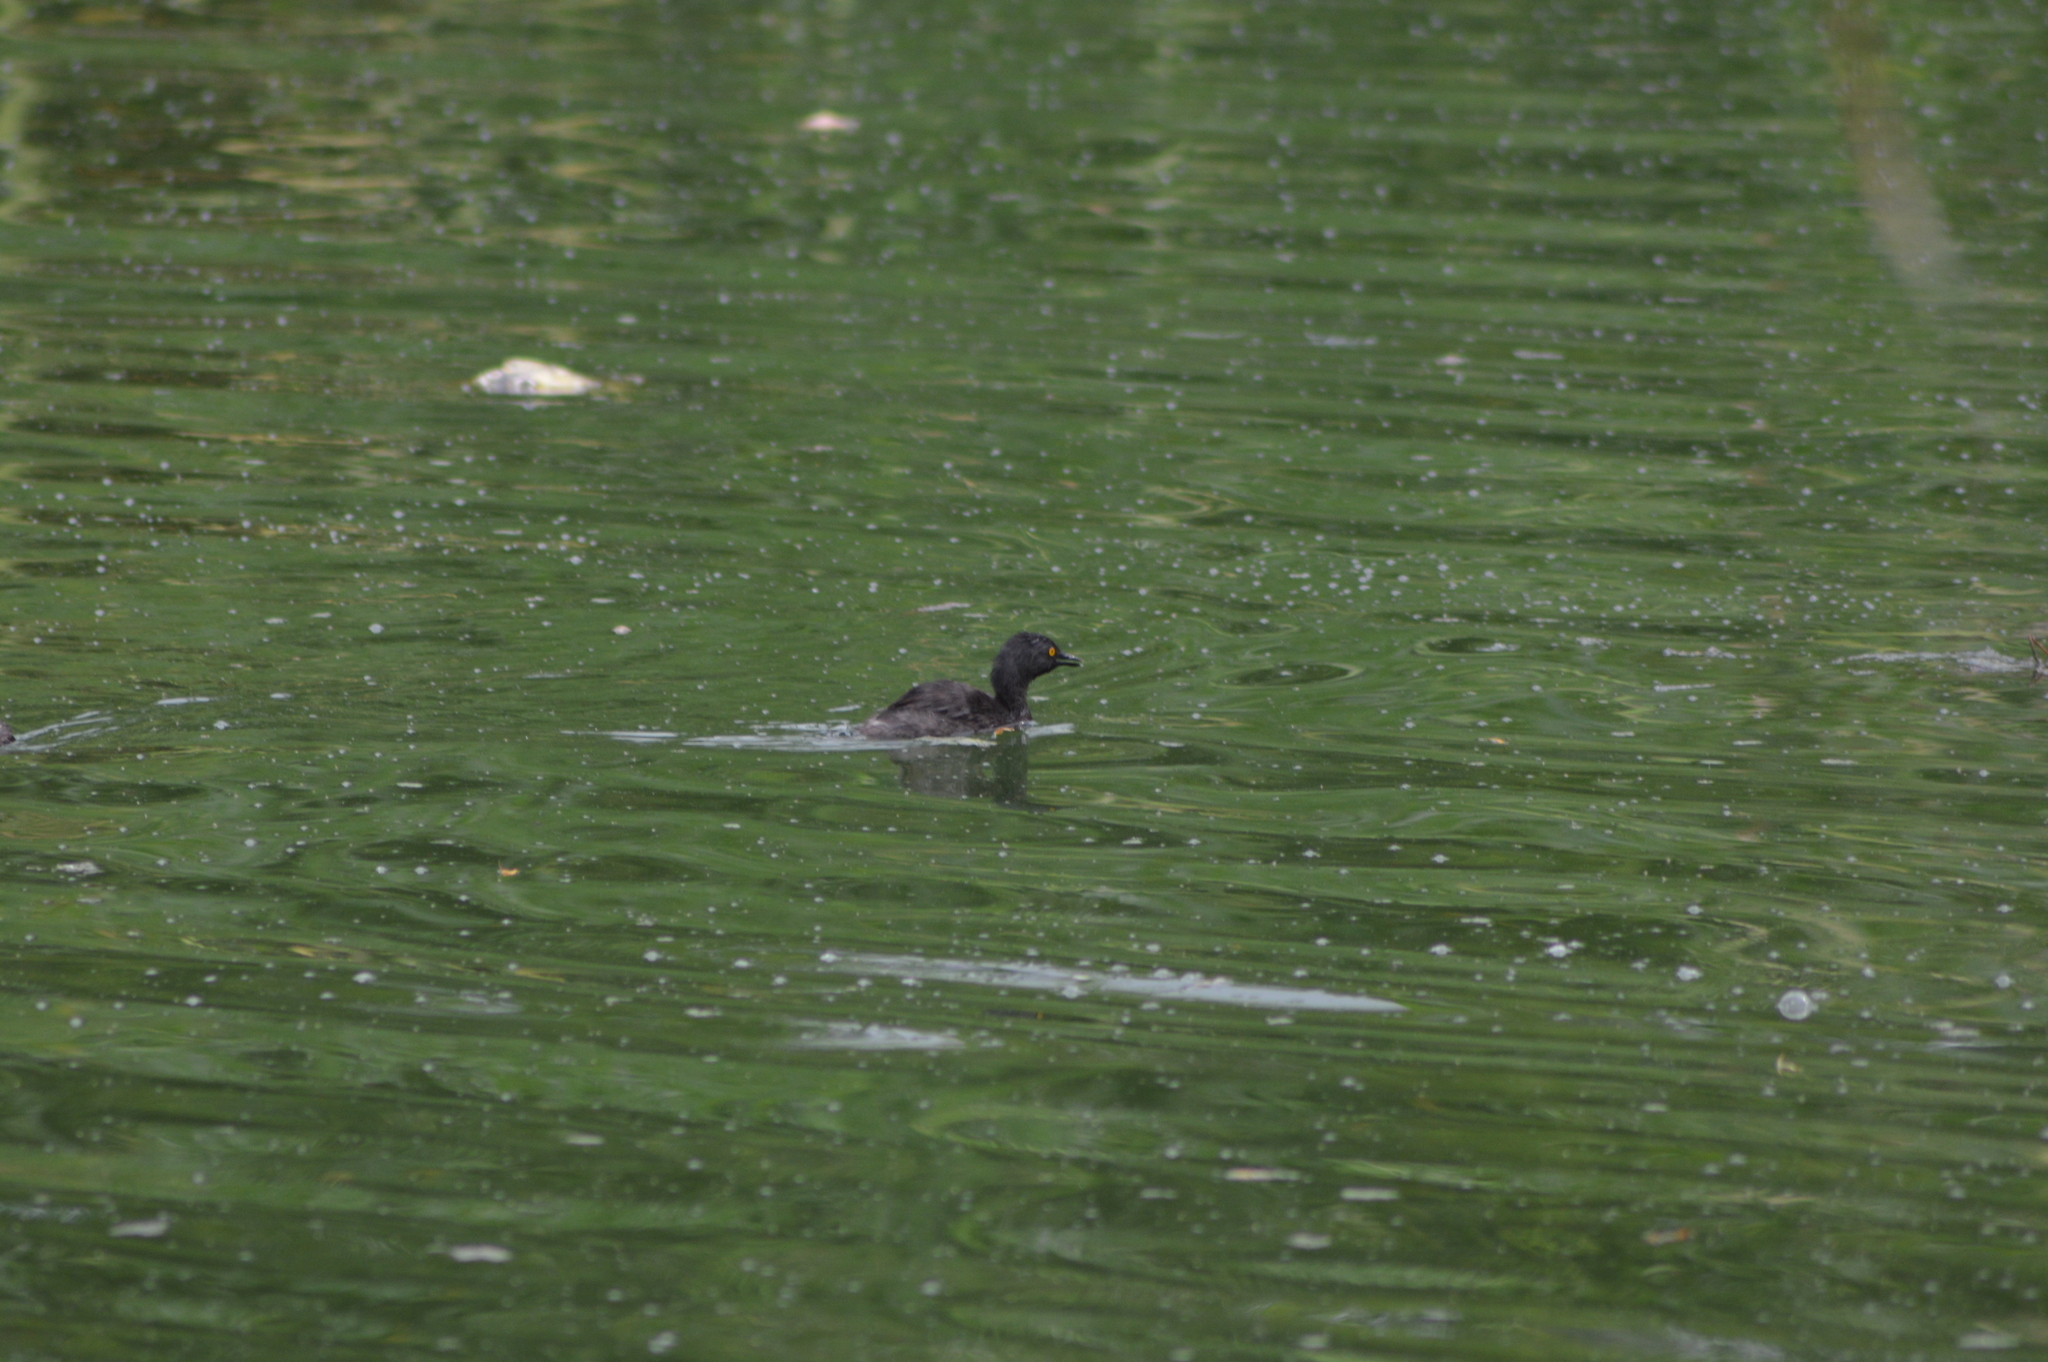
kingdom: Animalia
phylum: Chordata
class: Aves
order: Podicipediformes
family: Podicipedidae
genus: Tachybaptus
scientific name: Tachybaptus dominicus
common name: Least grebe
